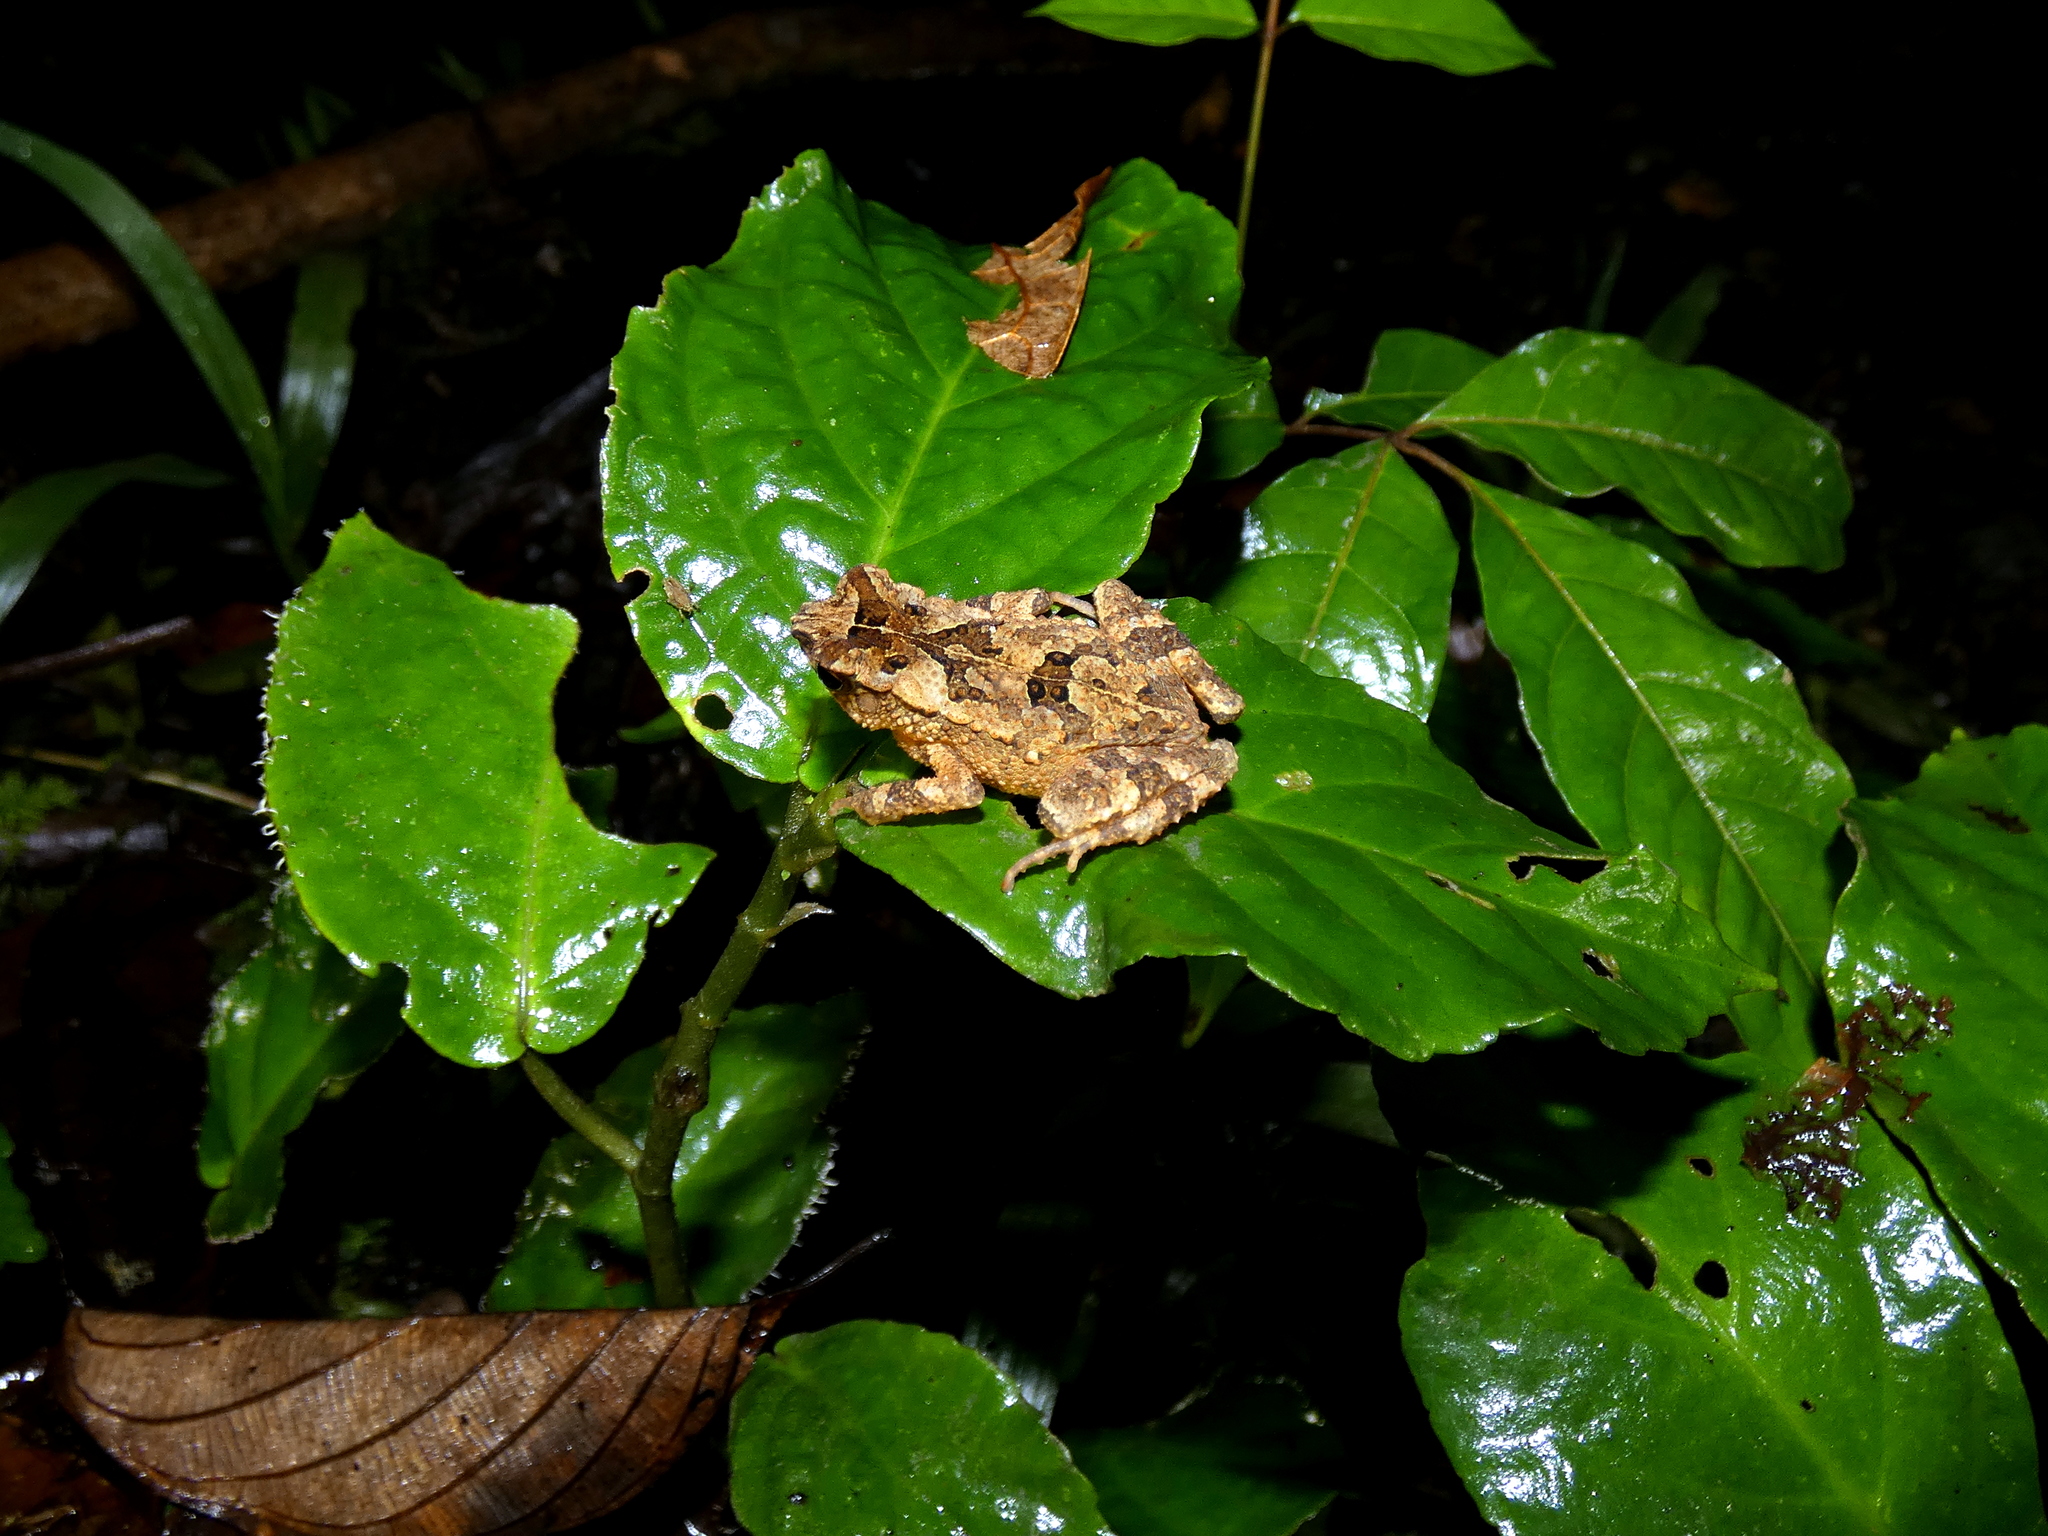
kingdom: Animalia
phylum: Chordata
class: Amphibia
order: Anura
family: Bufonidae
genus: Ingerophrynus
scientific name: Ingerophrynus divergens
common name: Crested toad
